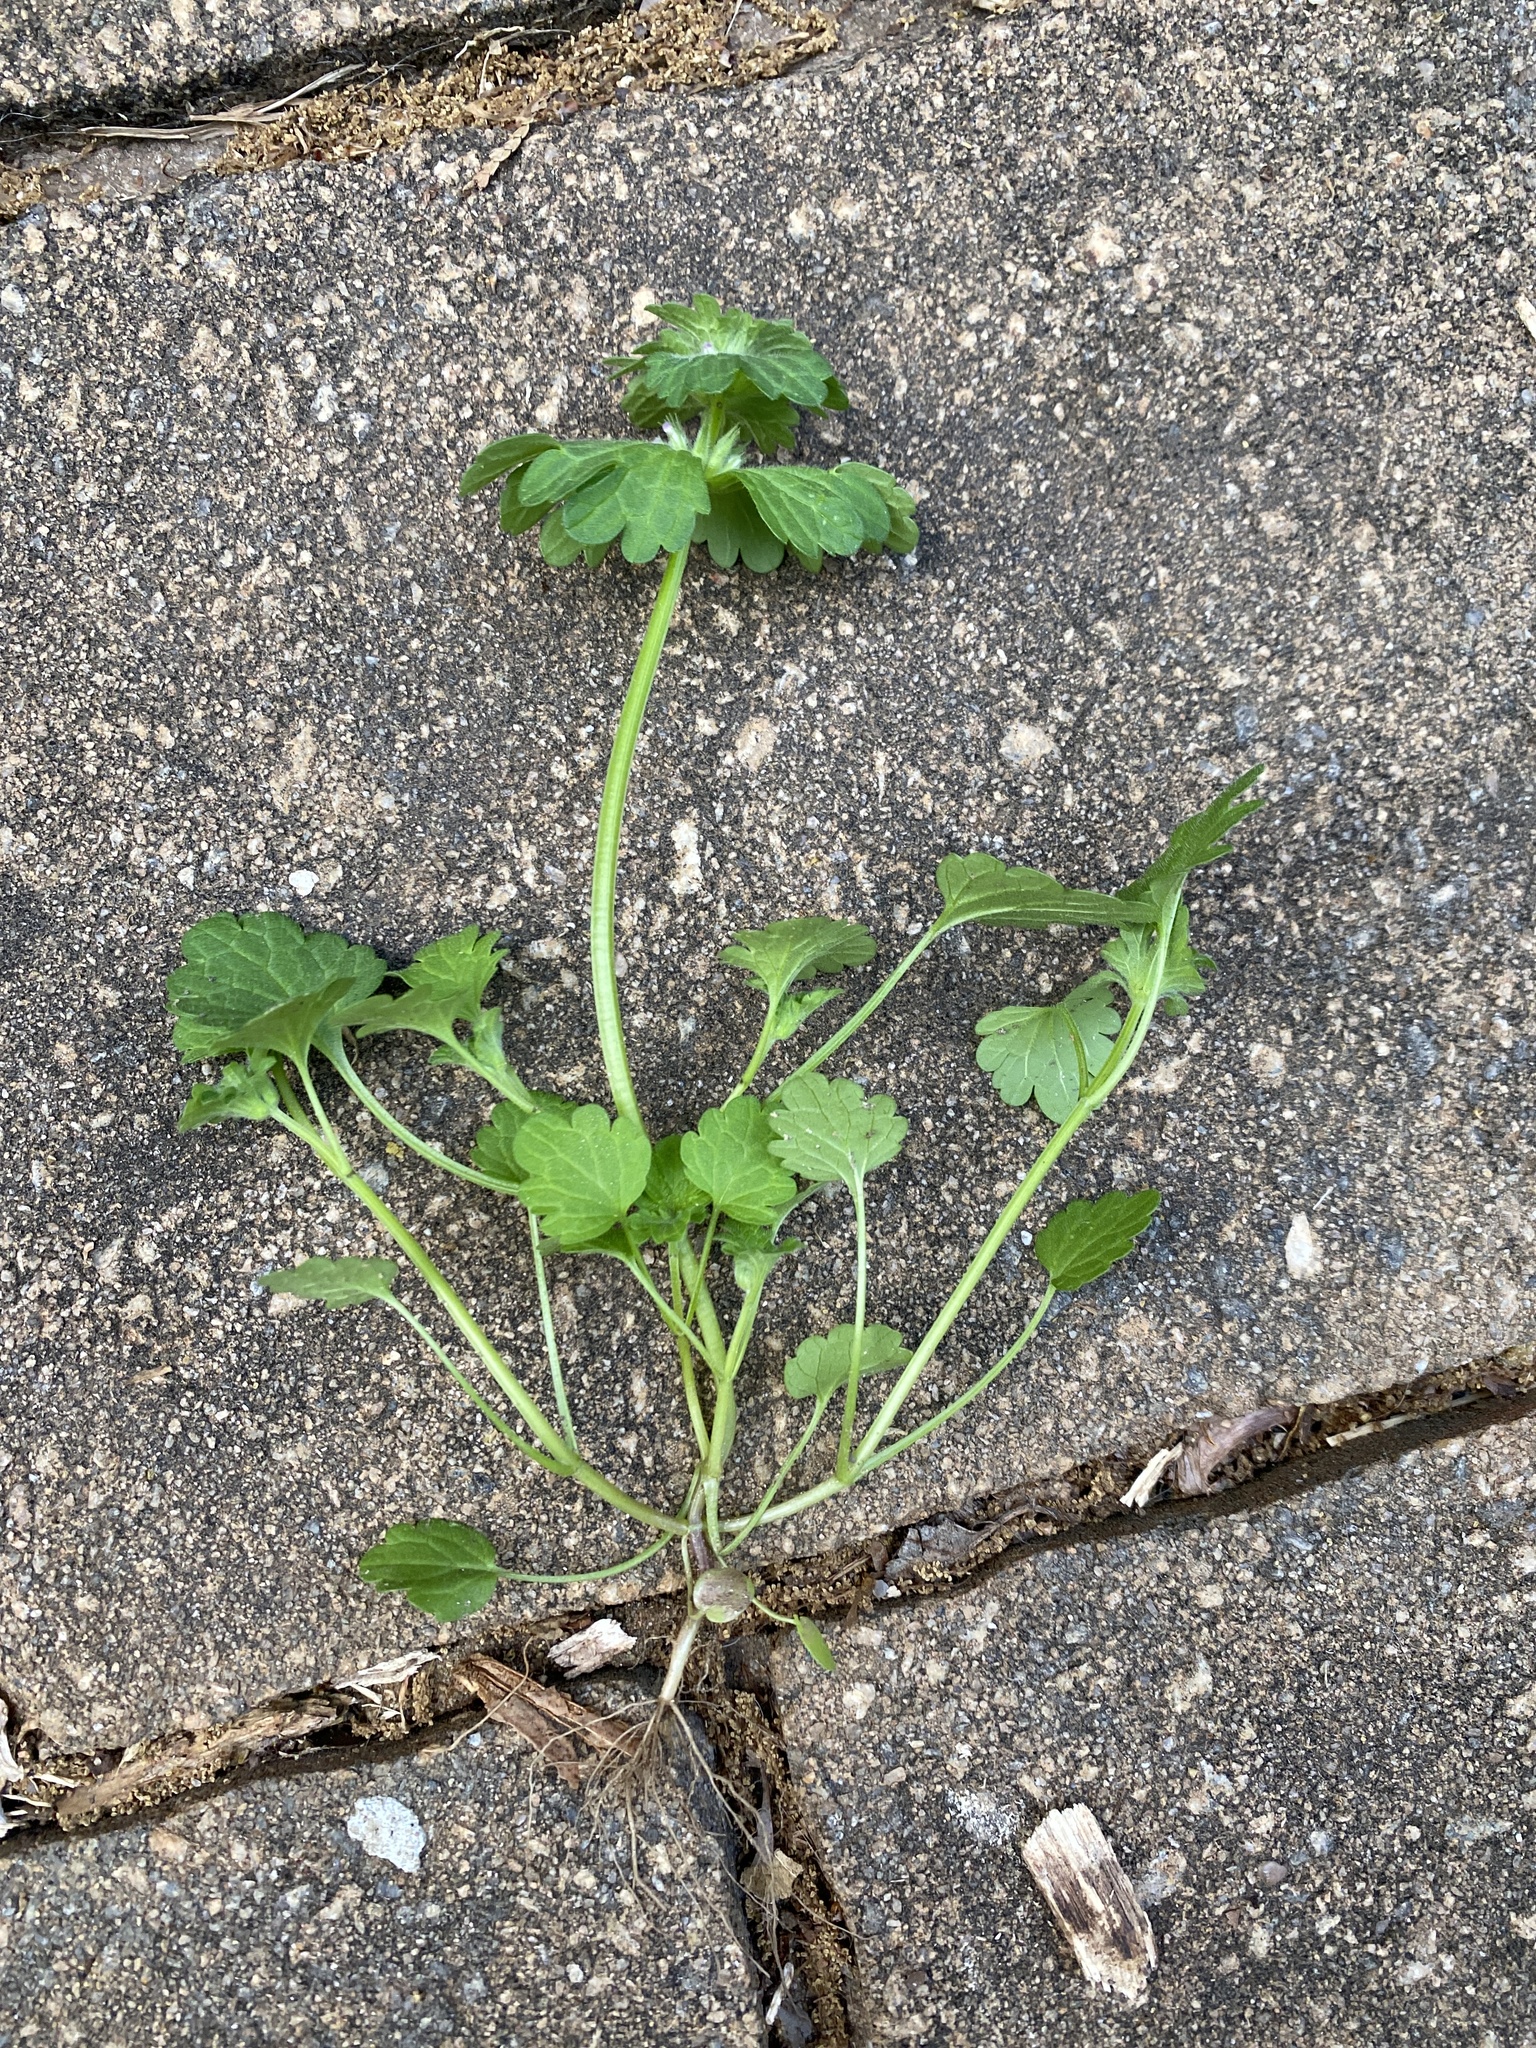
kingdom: Plantae
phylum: Tracheophyta
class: Magnoliopsida
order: Lamiales
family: Lamiaceae
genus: Lamium
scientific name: Lamium amplexicaule
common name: Henbit dead-nettle
